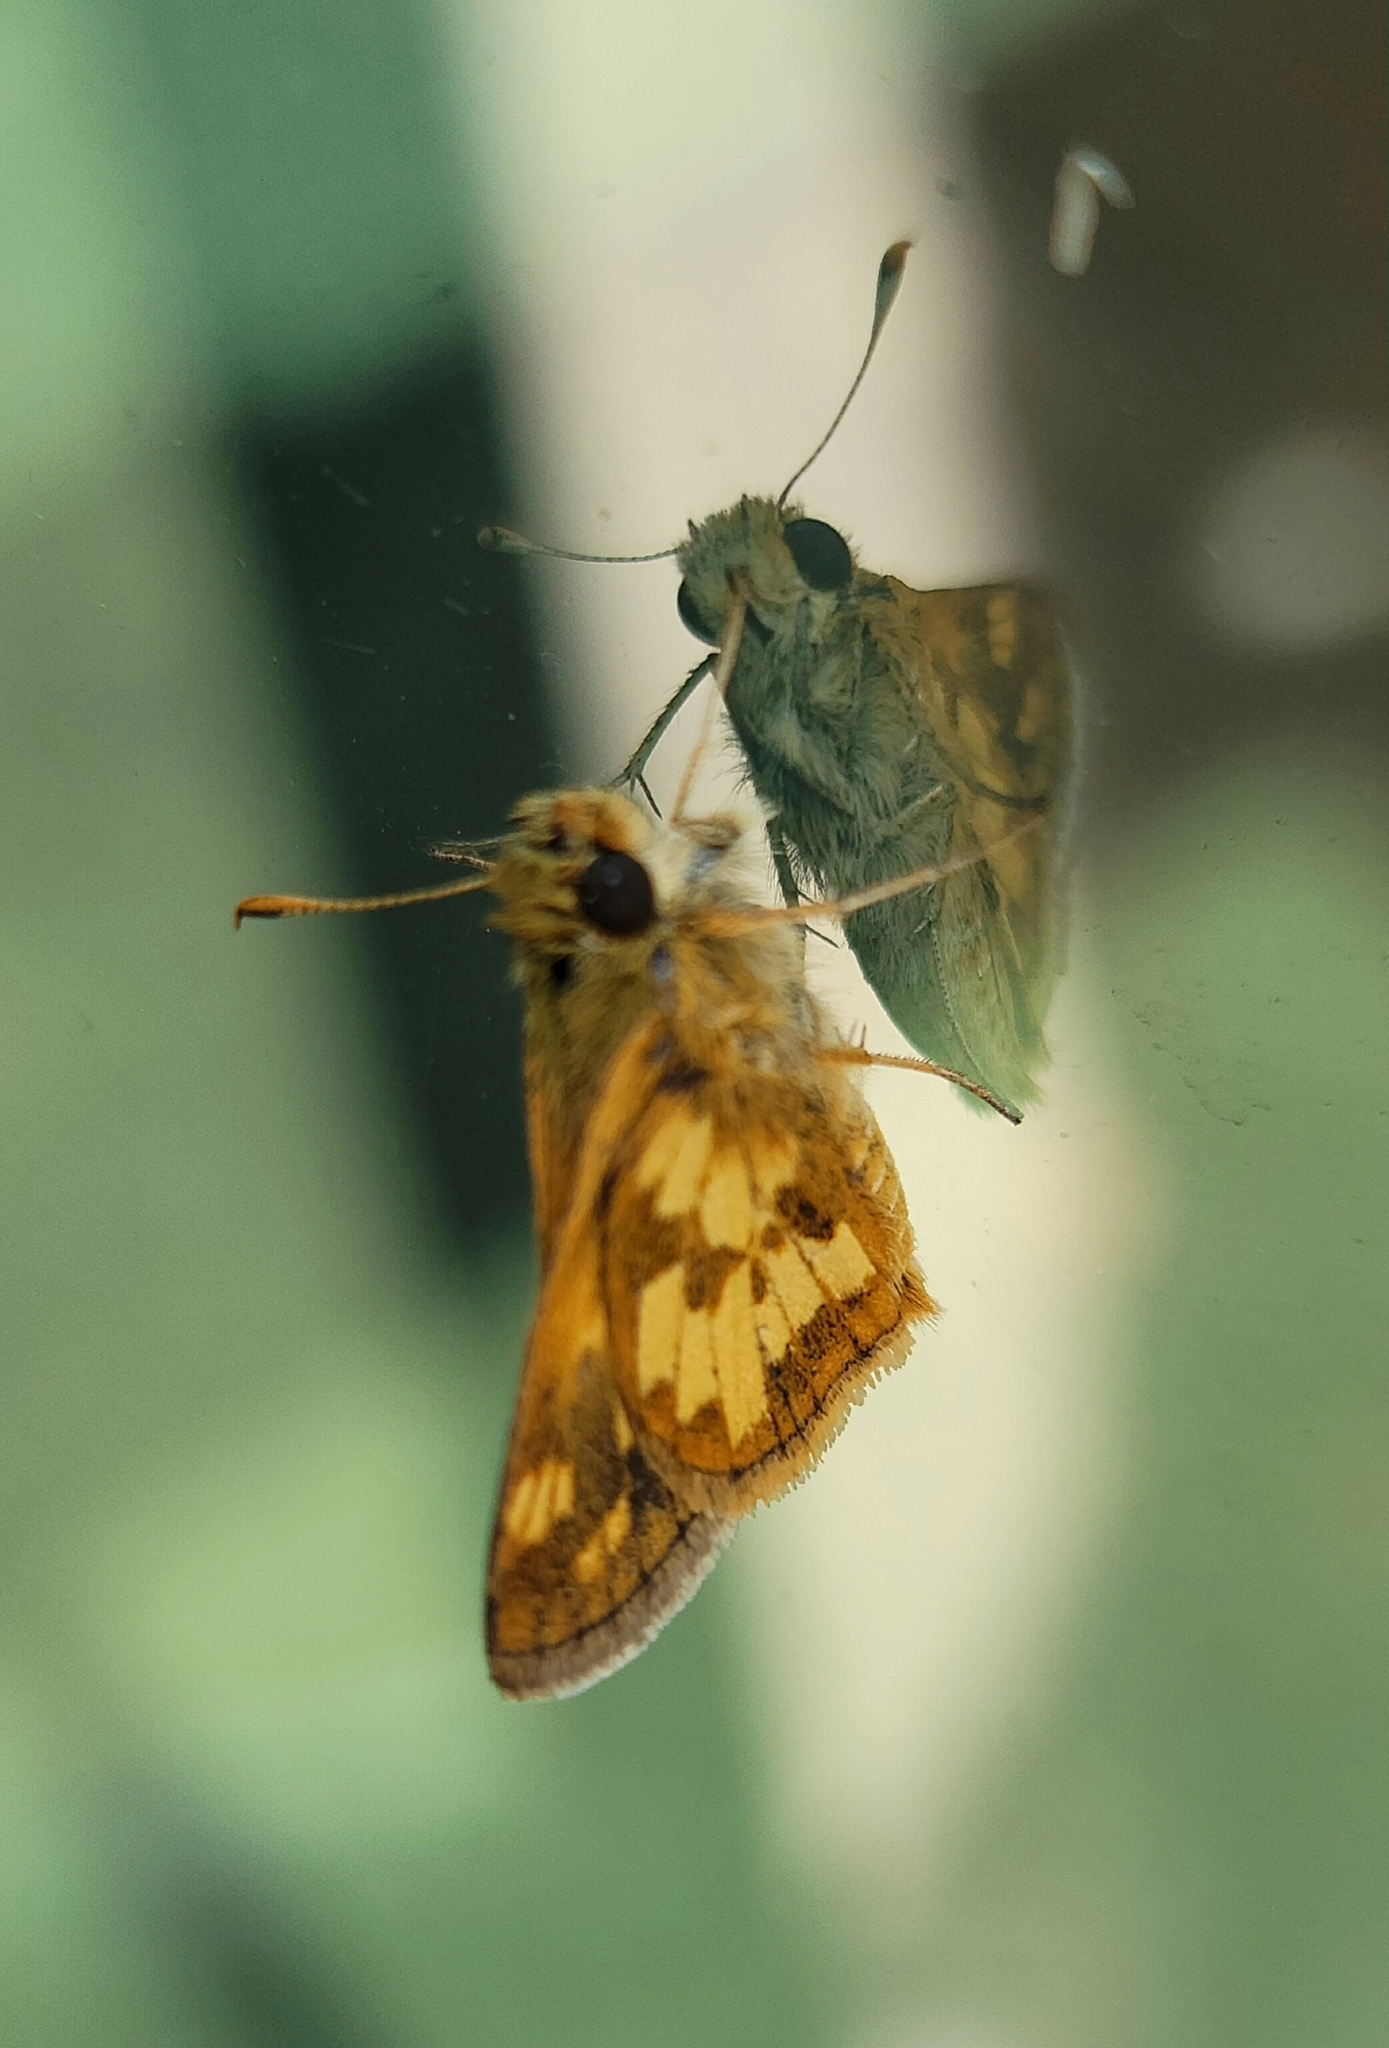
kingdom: Animalia
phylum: Arthropoda
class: Insecta
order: Lepidoptera
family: Hesperiidae
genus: Polites
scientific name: Polites coras
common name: Peck's skipper
